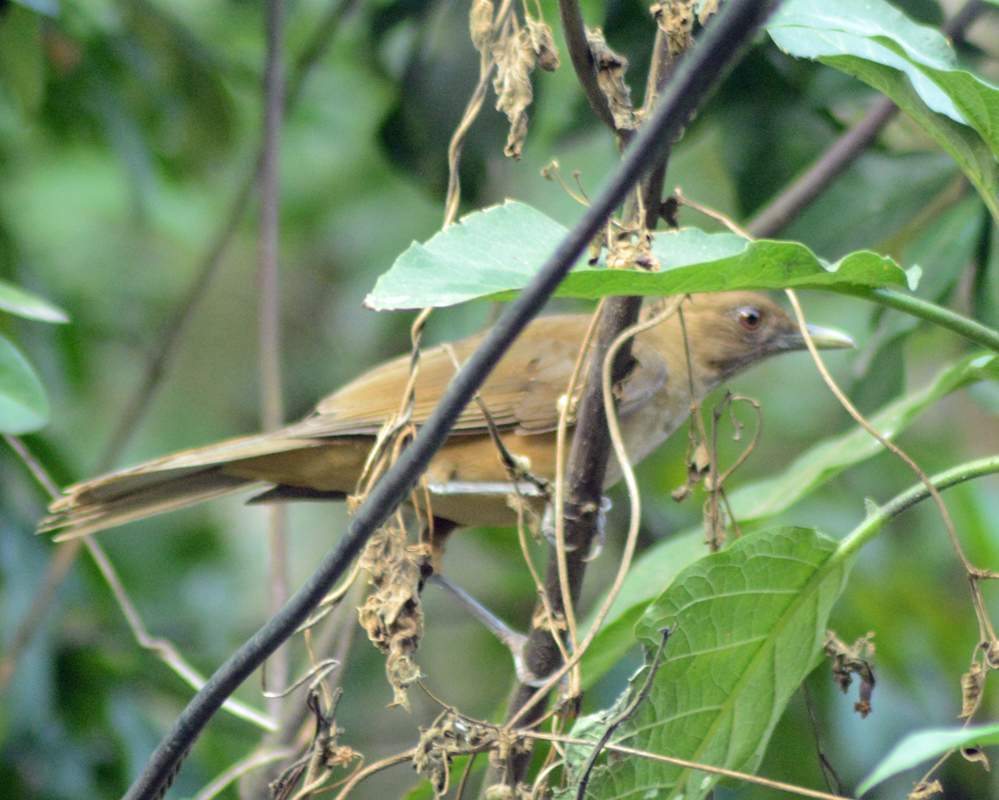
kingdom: Animalia
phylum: Chordata
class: Aves
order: Passeriformes
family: Turdidae
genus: Turdus
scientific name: Turdus grayi
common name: Clay-colored thrush
